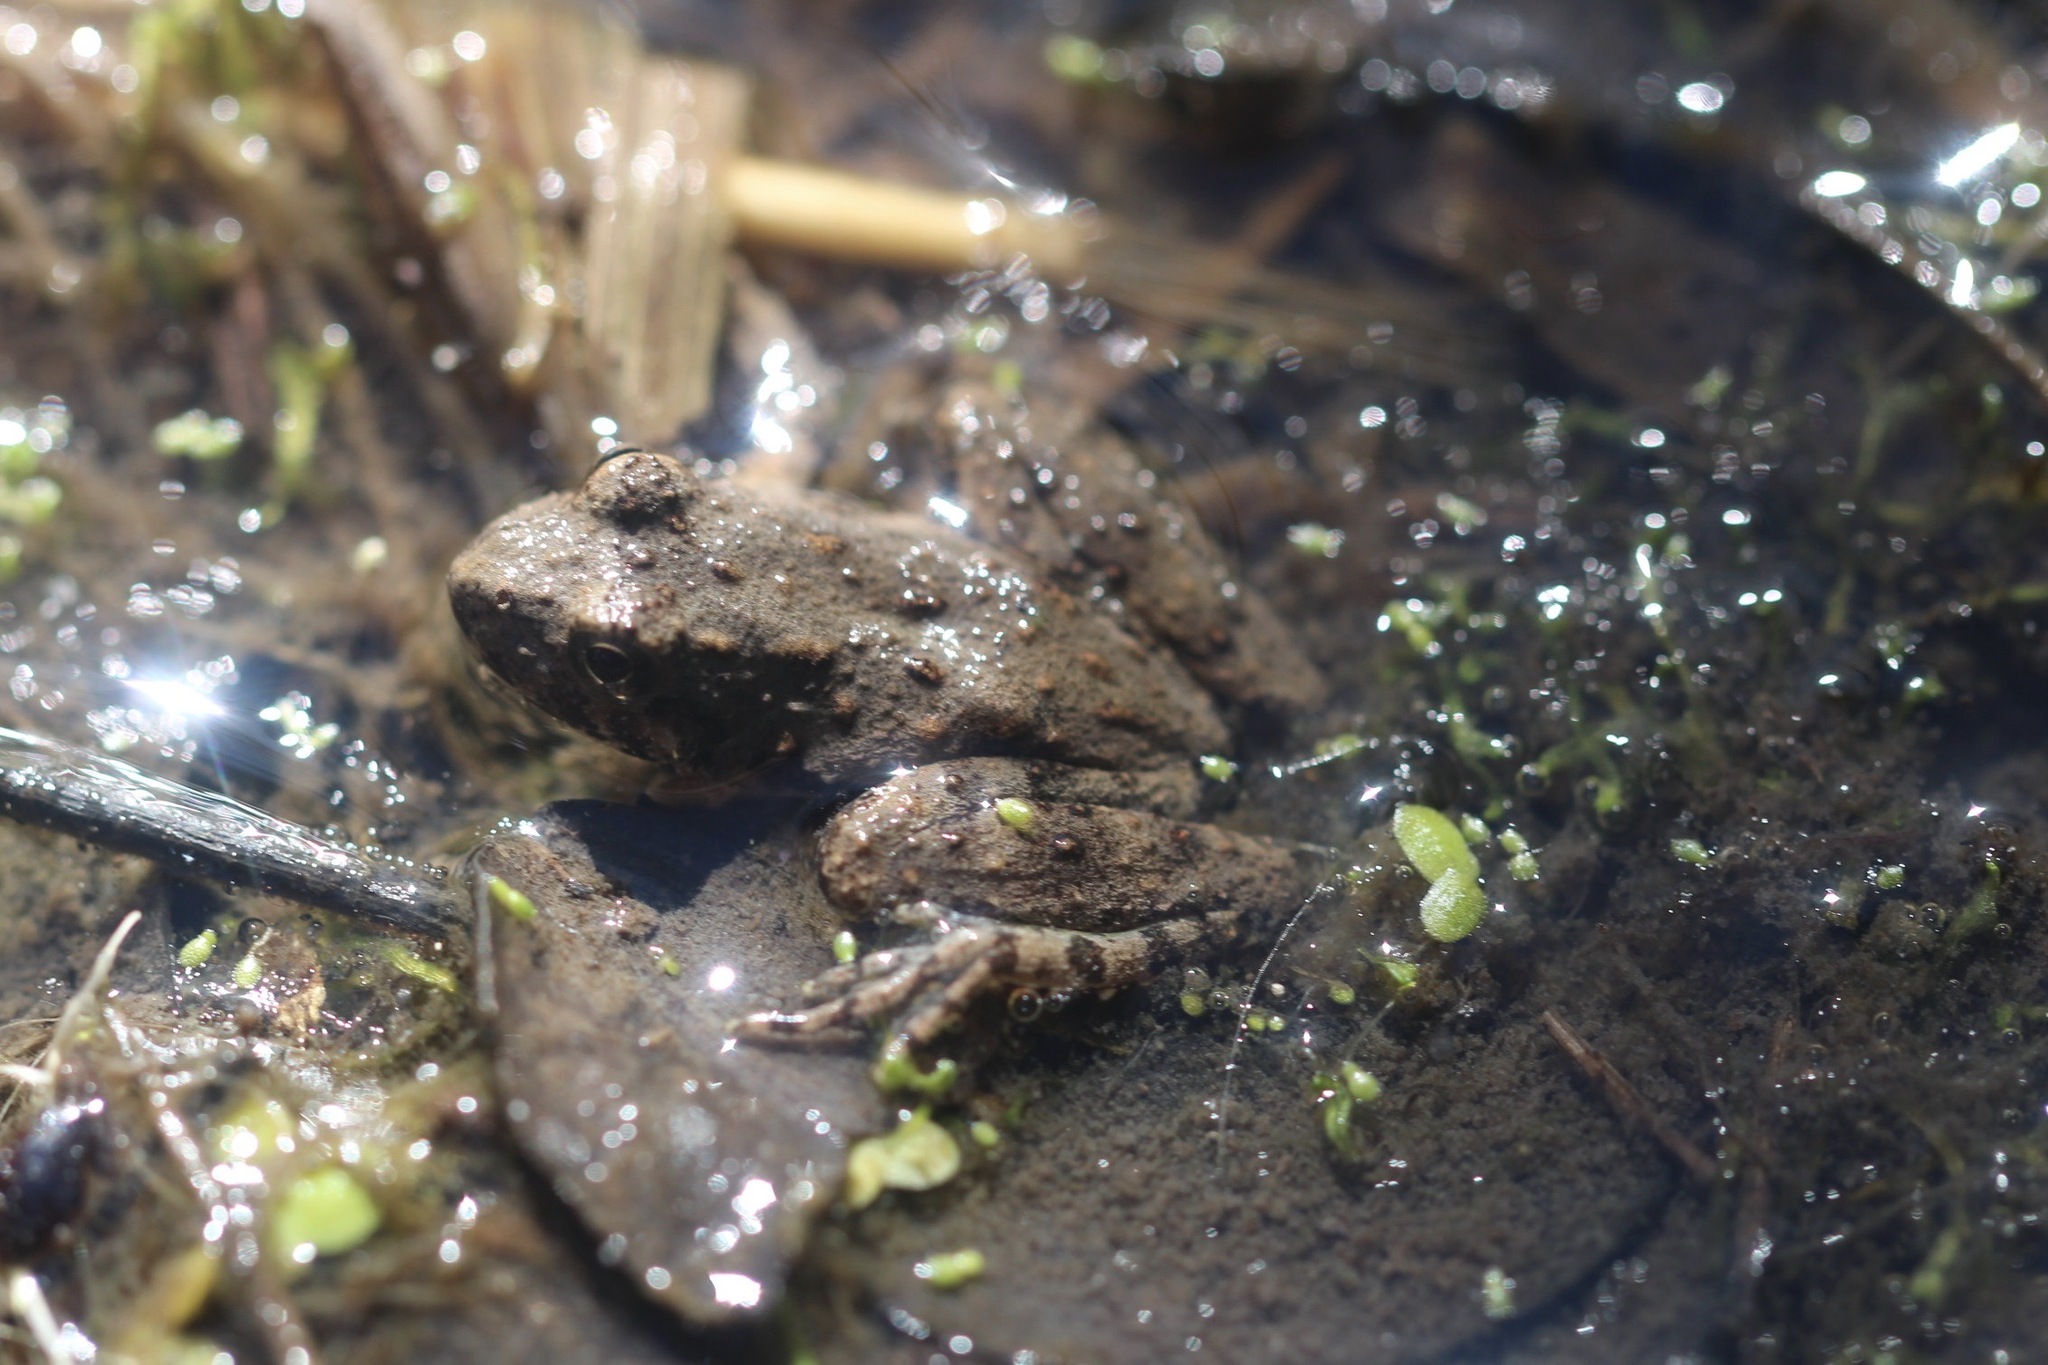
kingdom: Animalia
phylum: Chordata
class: Amphibia
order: Anura
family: Hylidae
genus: Acris
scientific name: Acris blanchardi
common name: Blanchard's cricket frog
